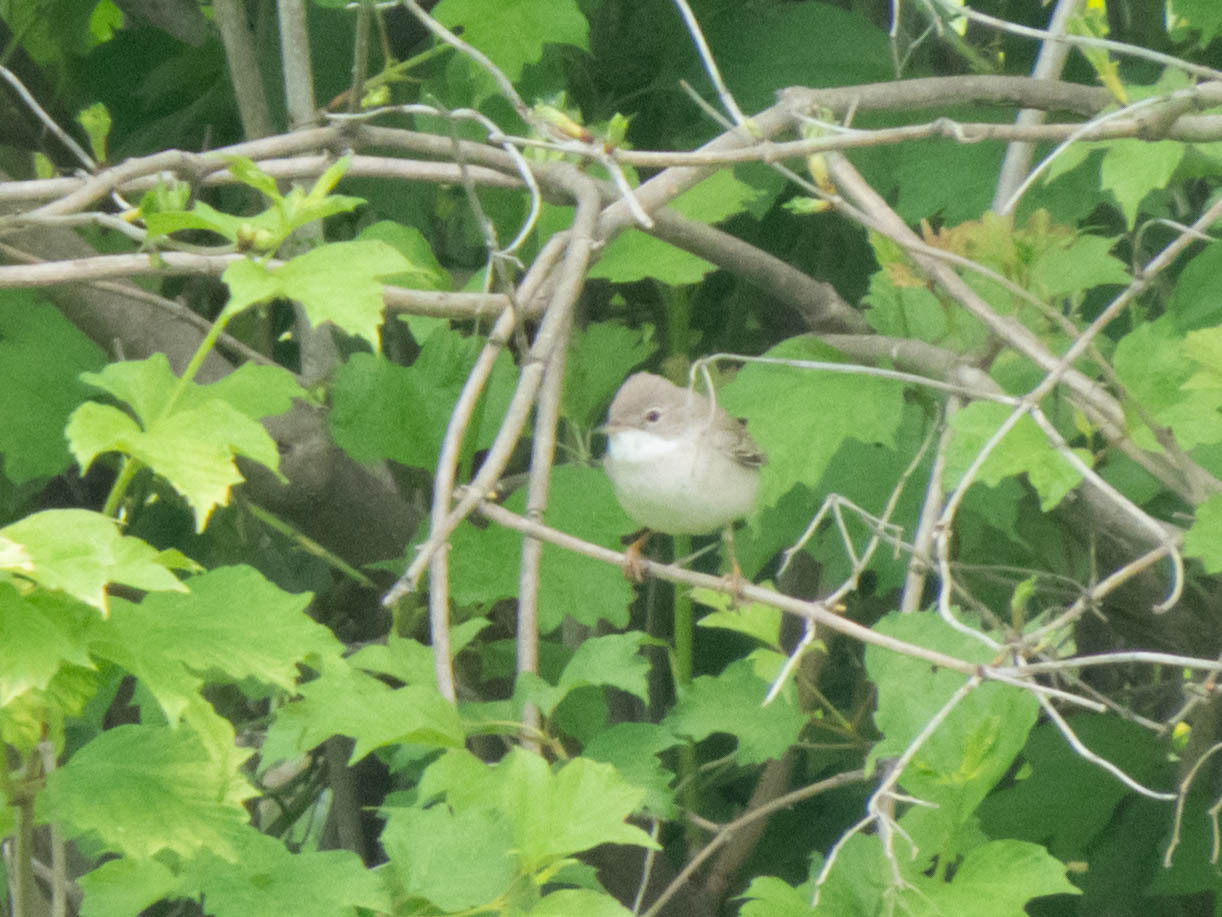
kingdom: Animalia
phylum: Chordata
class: Aves
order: Passeriformes
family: Sylviidae
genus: Sylvia
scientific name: Sylvia communis
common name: Common whitethroat
